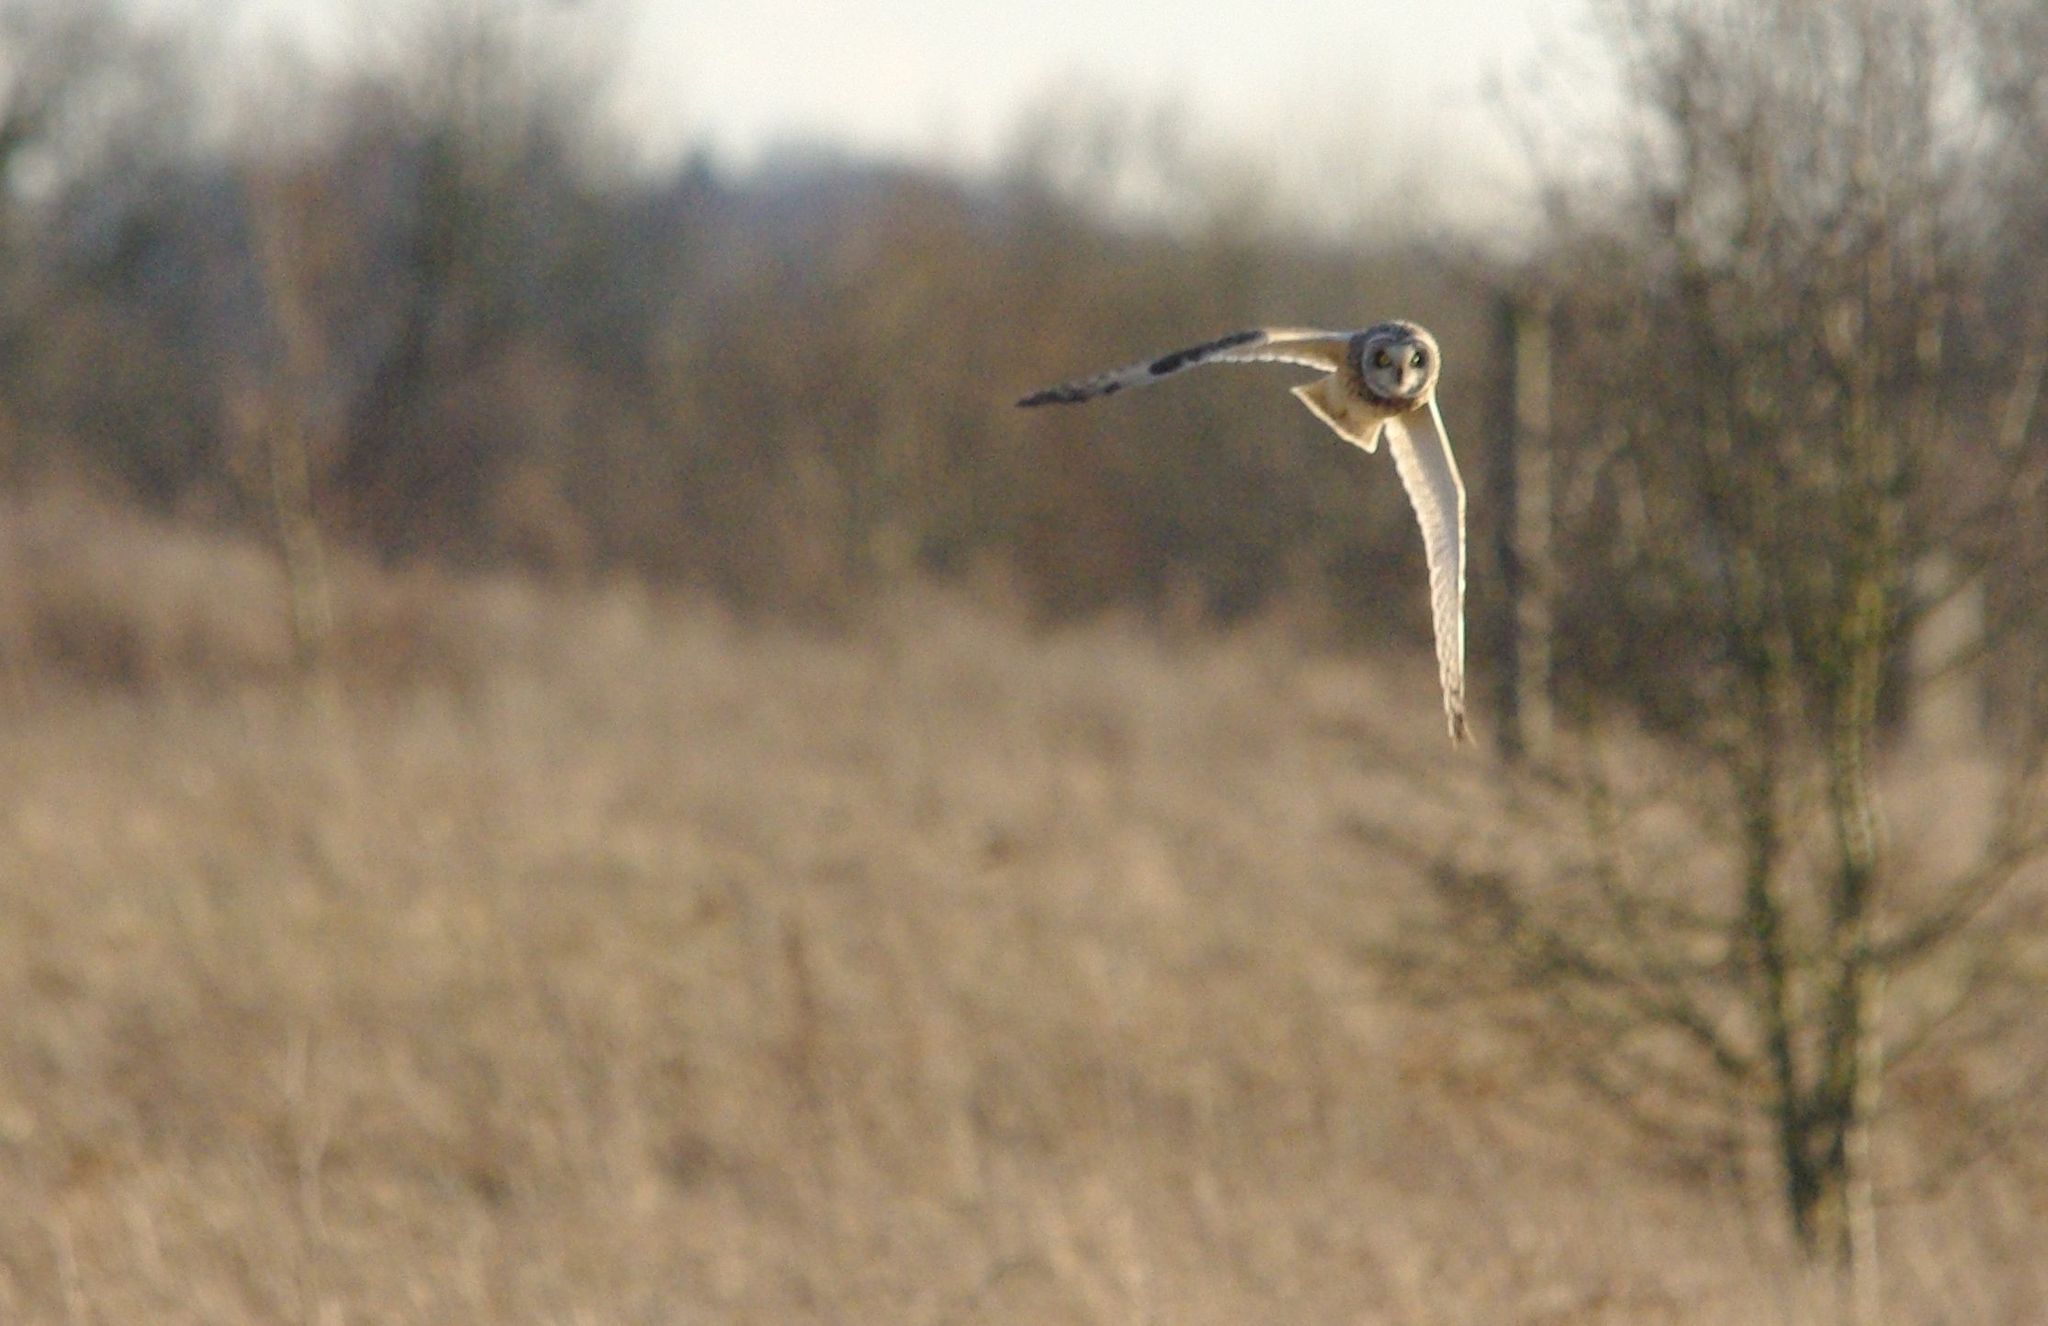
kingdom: Animalia
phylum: Chordata
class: Aves
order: Strigiformes
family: Strigidae
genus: Asio
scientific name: Asio flammeus
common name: Short-eared owl
